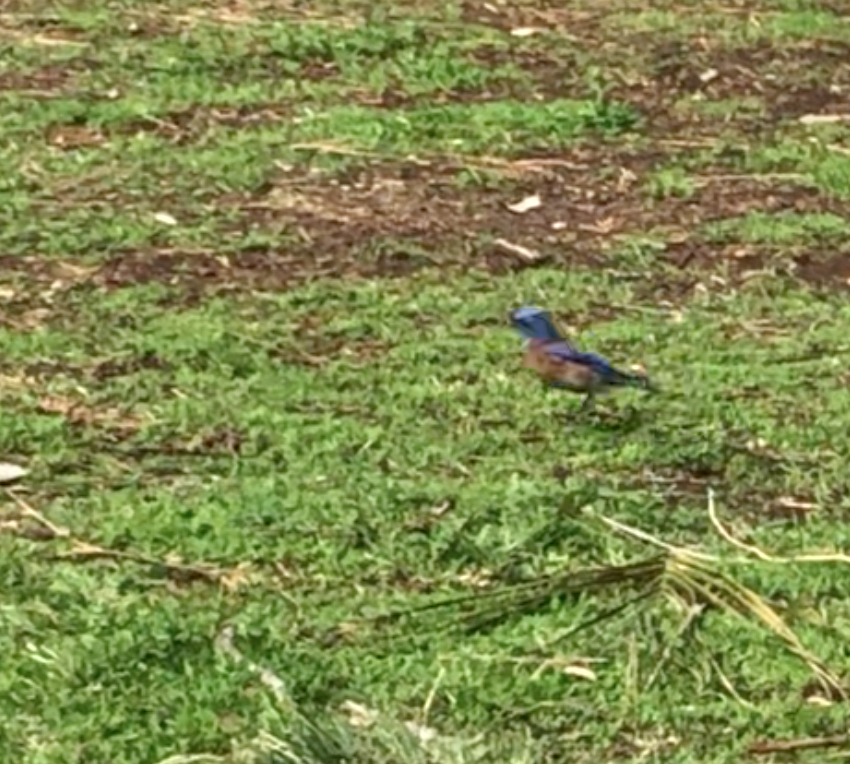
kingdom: Animalia
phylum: Chordata
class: Aves
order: Passeriformes
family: Turdidae
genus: Sialia
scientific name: Sialia mexicana
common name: Western bluebird
